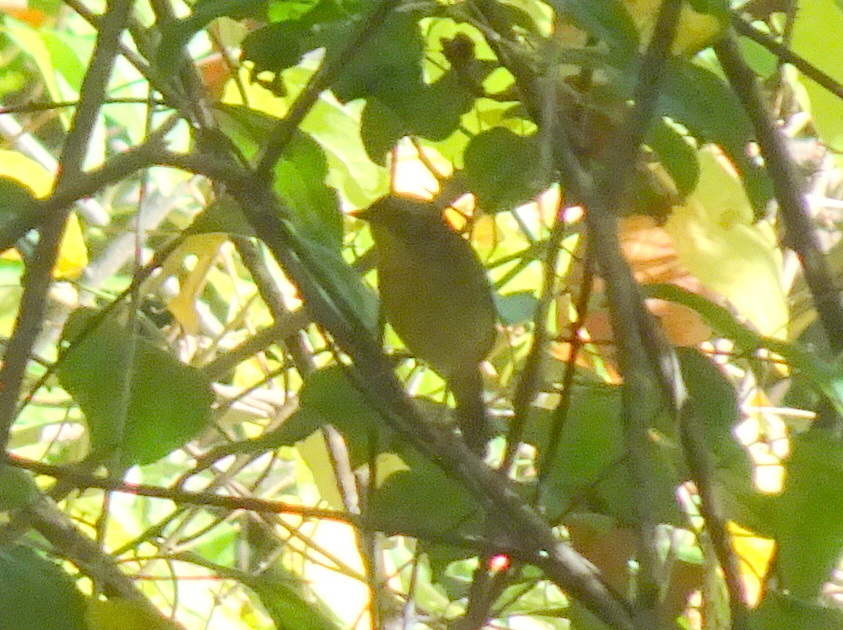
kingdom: Animalia
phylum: Chordata
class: Aves
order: Passeriformes
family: Parulidae
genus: Geothlypis
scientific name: Geothlypis trichas
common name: Common yellowthroat
